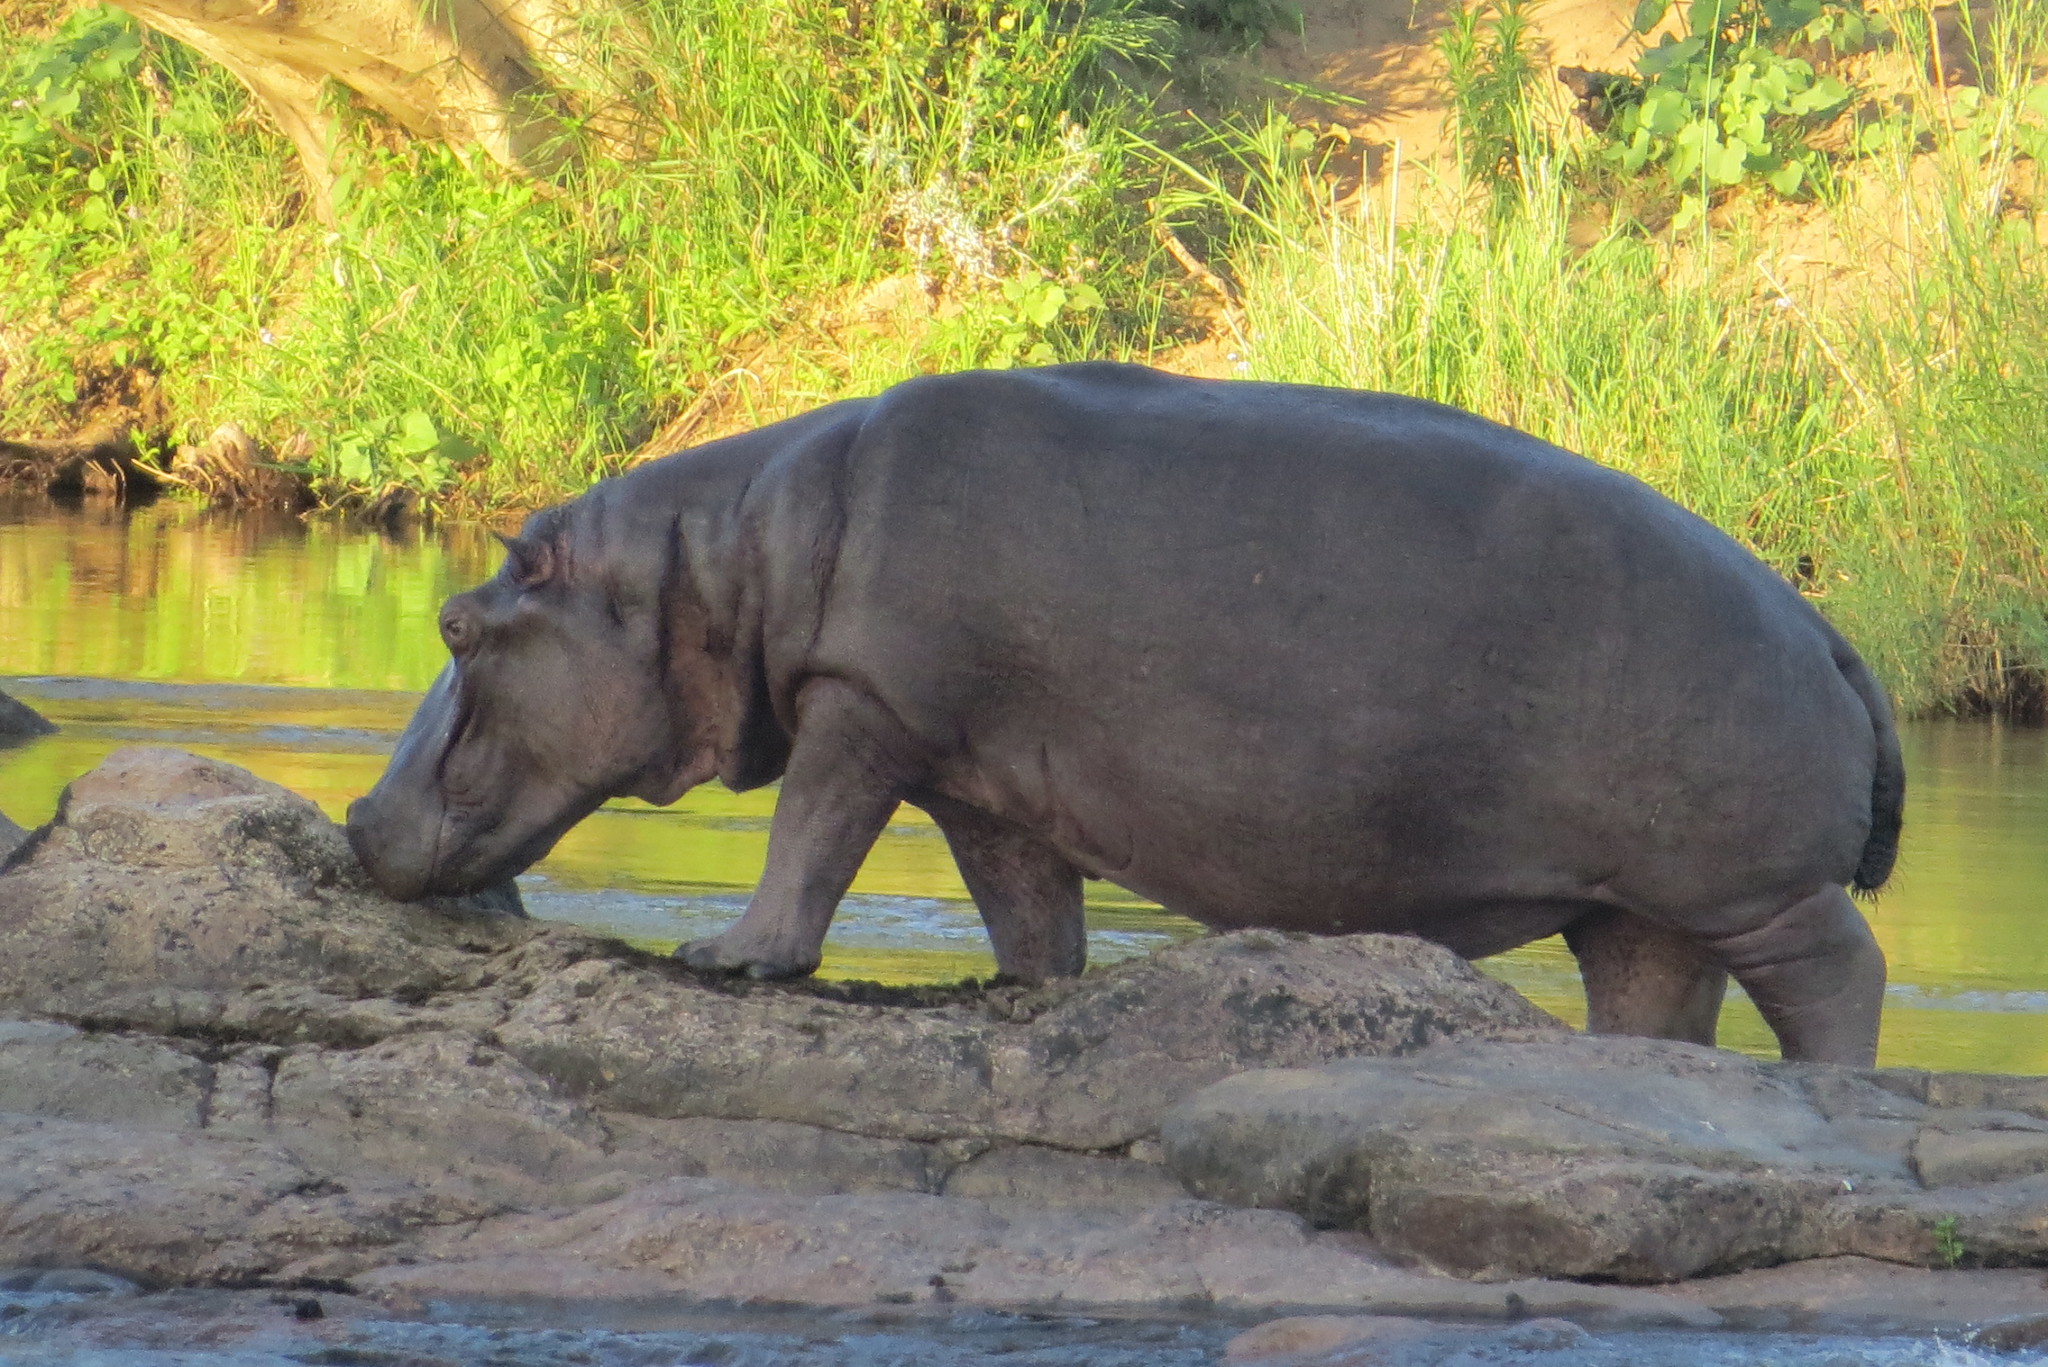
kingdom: Animalia
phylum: Chordata
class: Mammalia
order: Artiodactyla
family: Hippopotamidae
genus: Hippopotamus
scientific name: Hippopotamus amphibius
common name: Common hippopotamus
